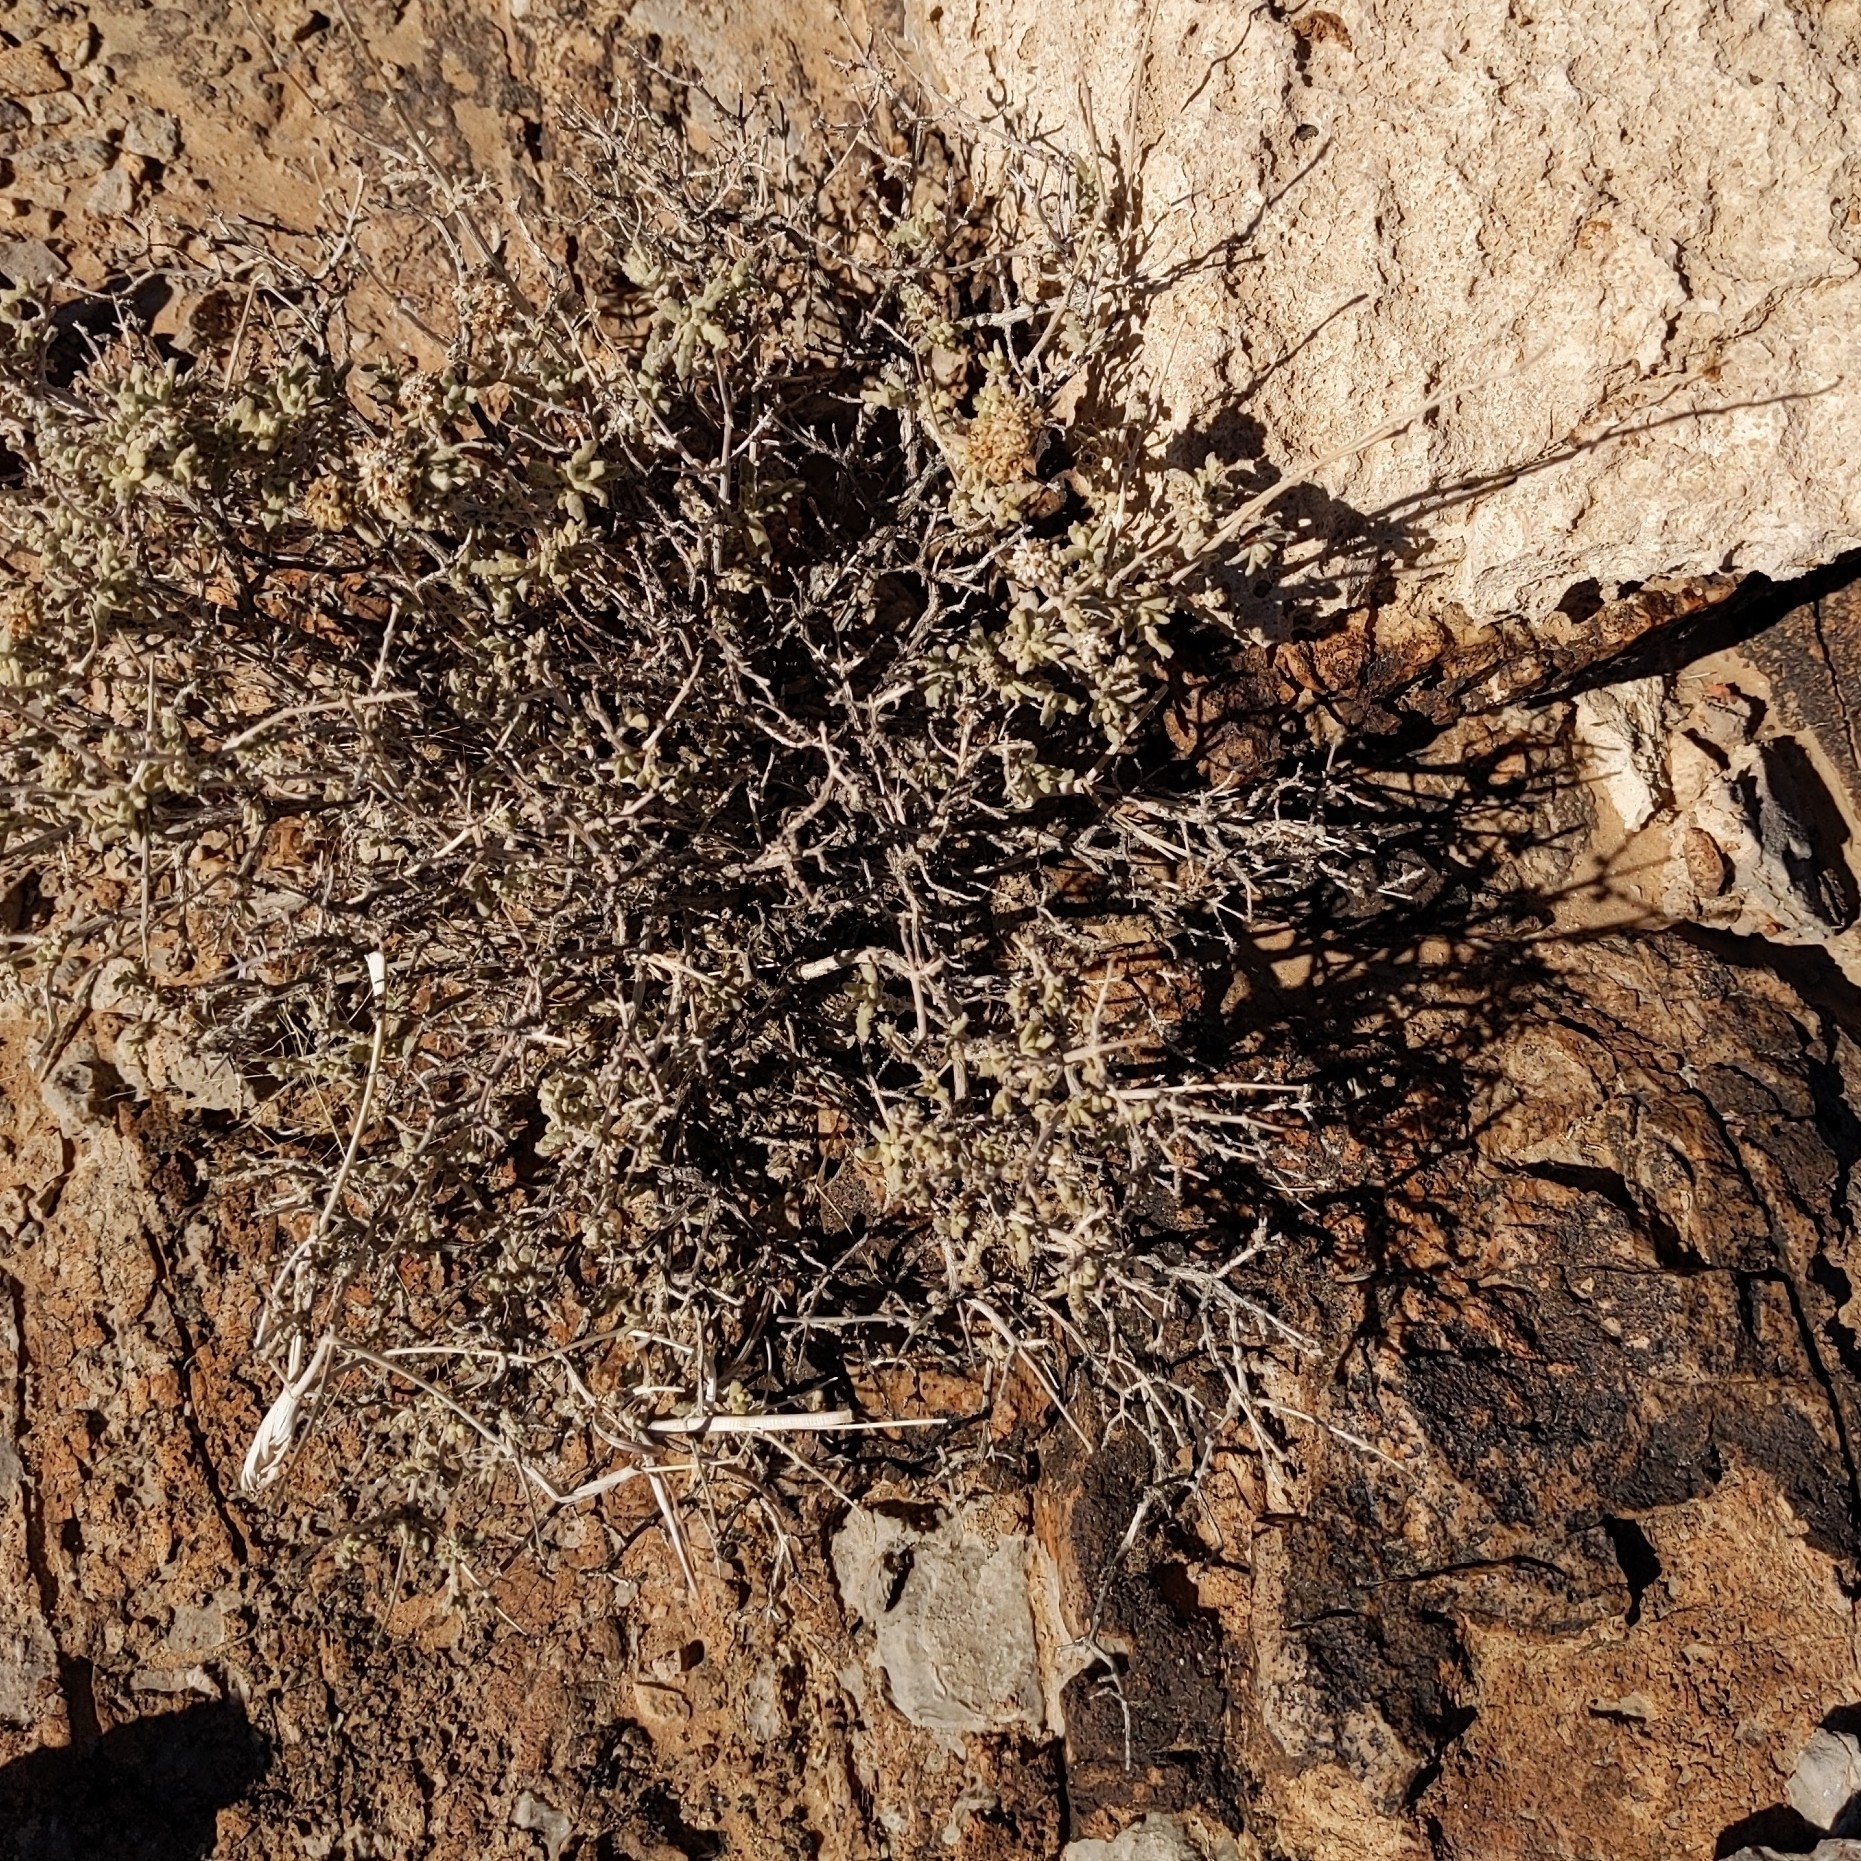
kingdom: Plantae
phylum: Tracheophyta
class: Magnoliopsida
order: Lamiales
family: Scrophulariaceae
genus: Buddleja
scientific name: Buddleja utahensis
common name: Utah butterfly-bush
